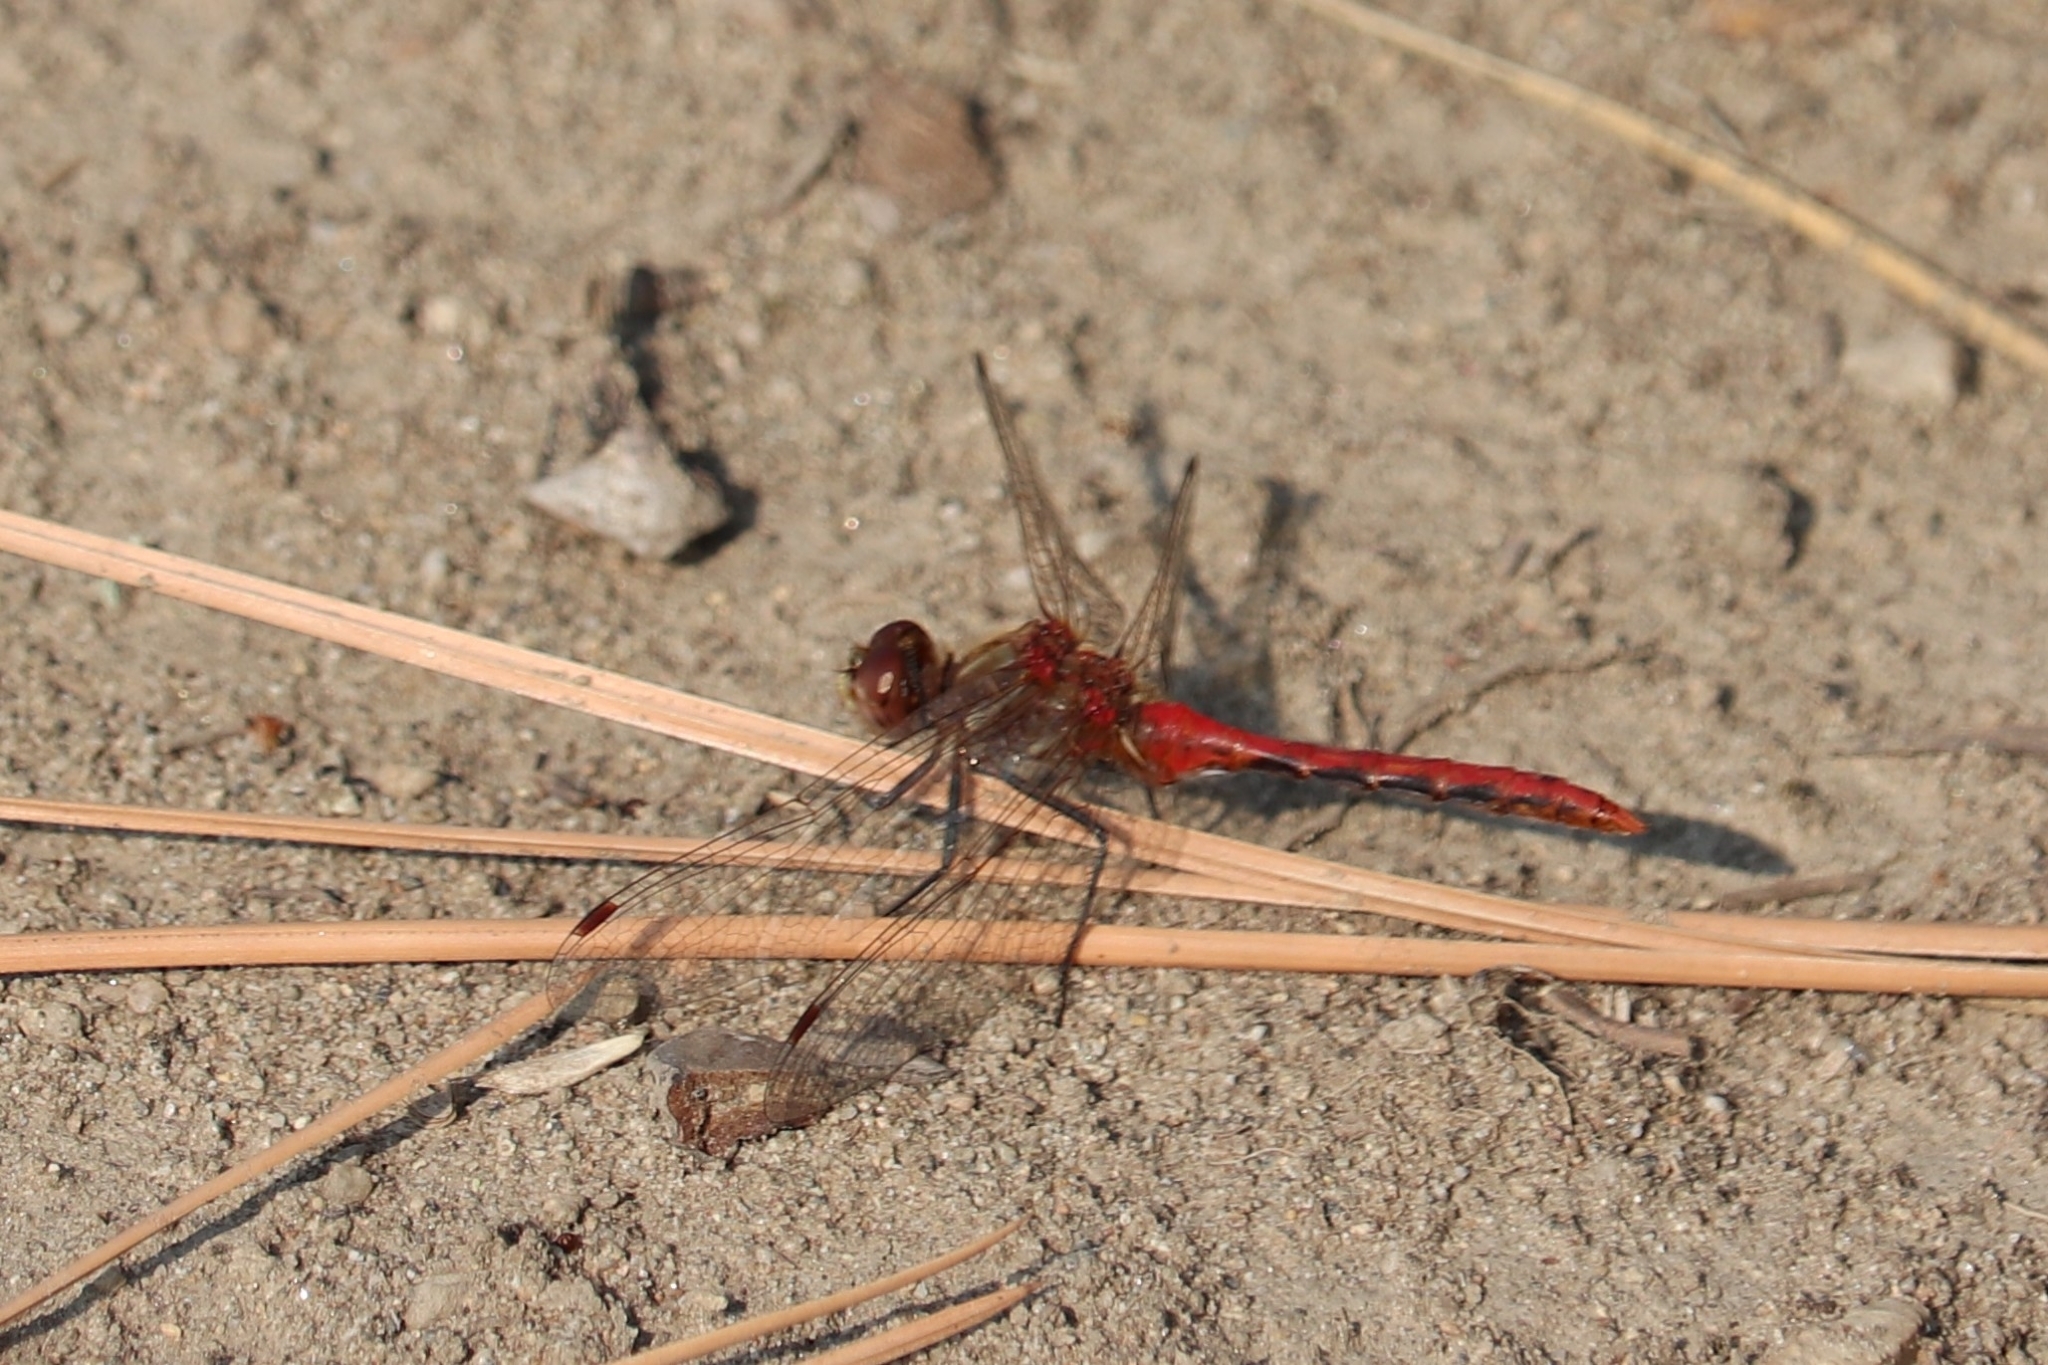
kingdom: Animalia
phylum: Arthropoda
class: Insecta
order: Odonata
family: Libellulidae
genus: Sympetrum
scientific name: Sympetrum pallipes
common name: Striped meadowhawk
